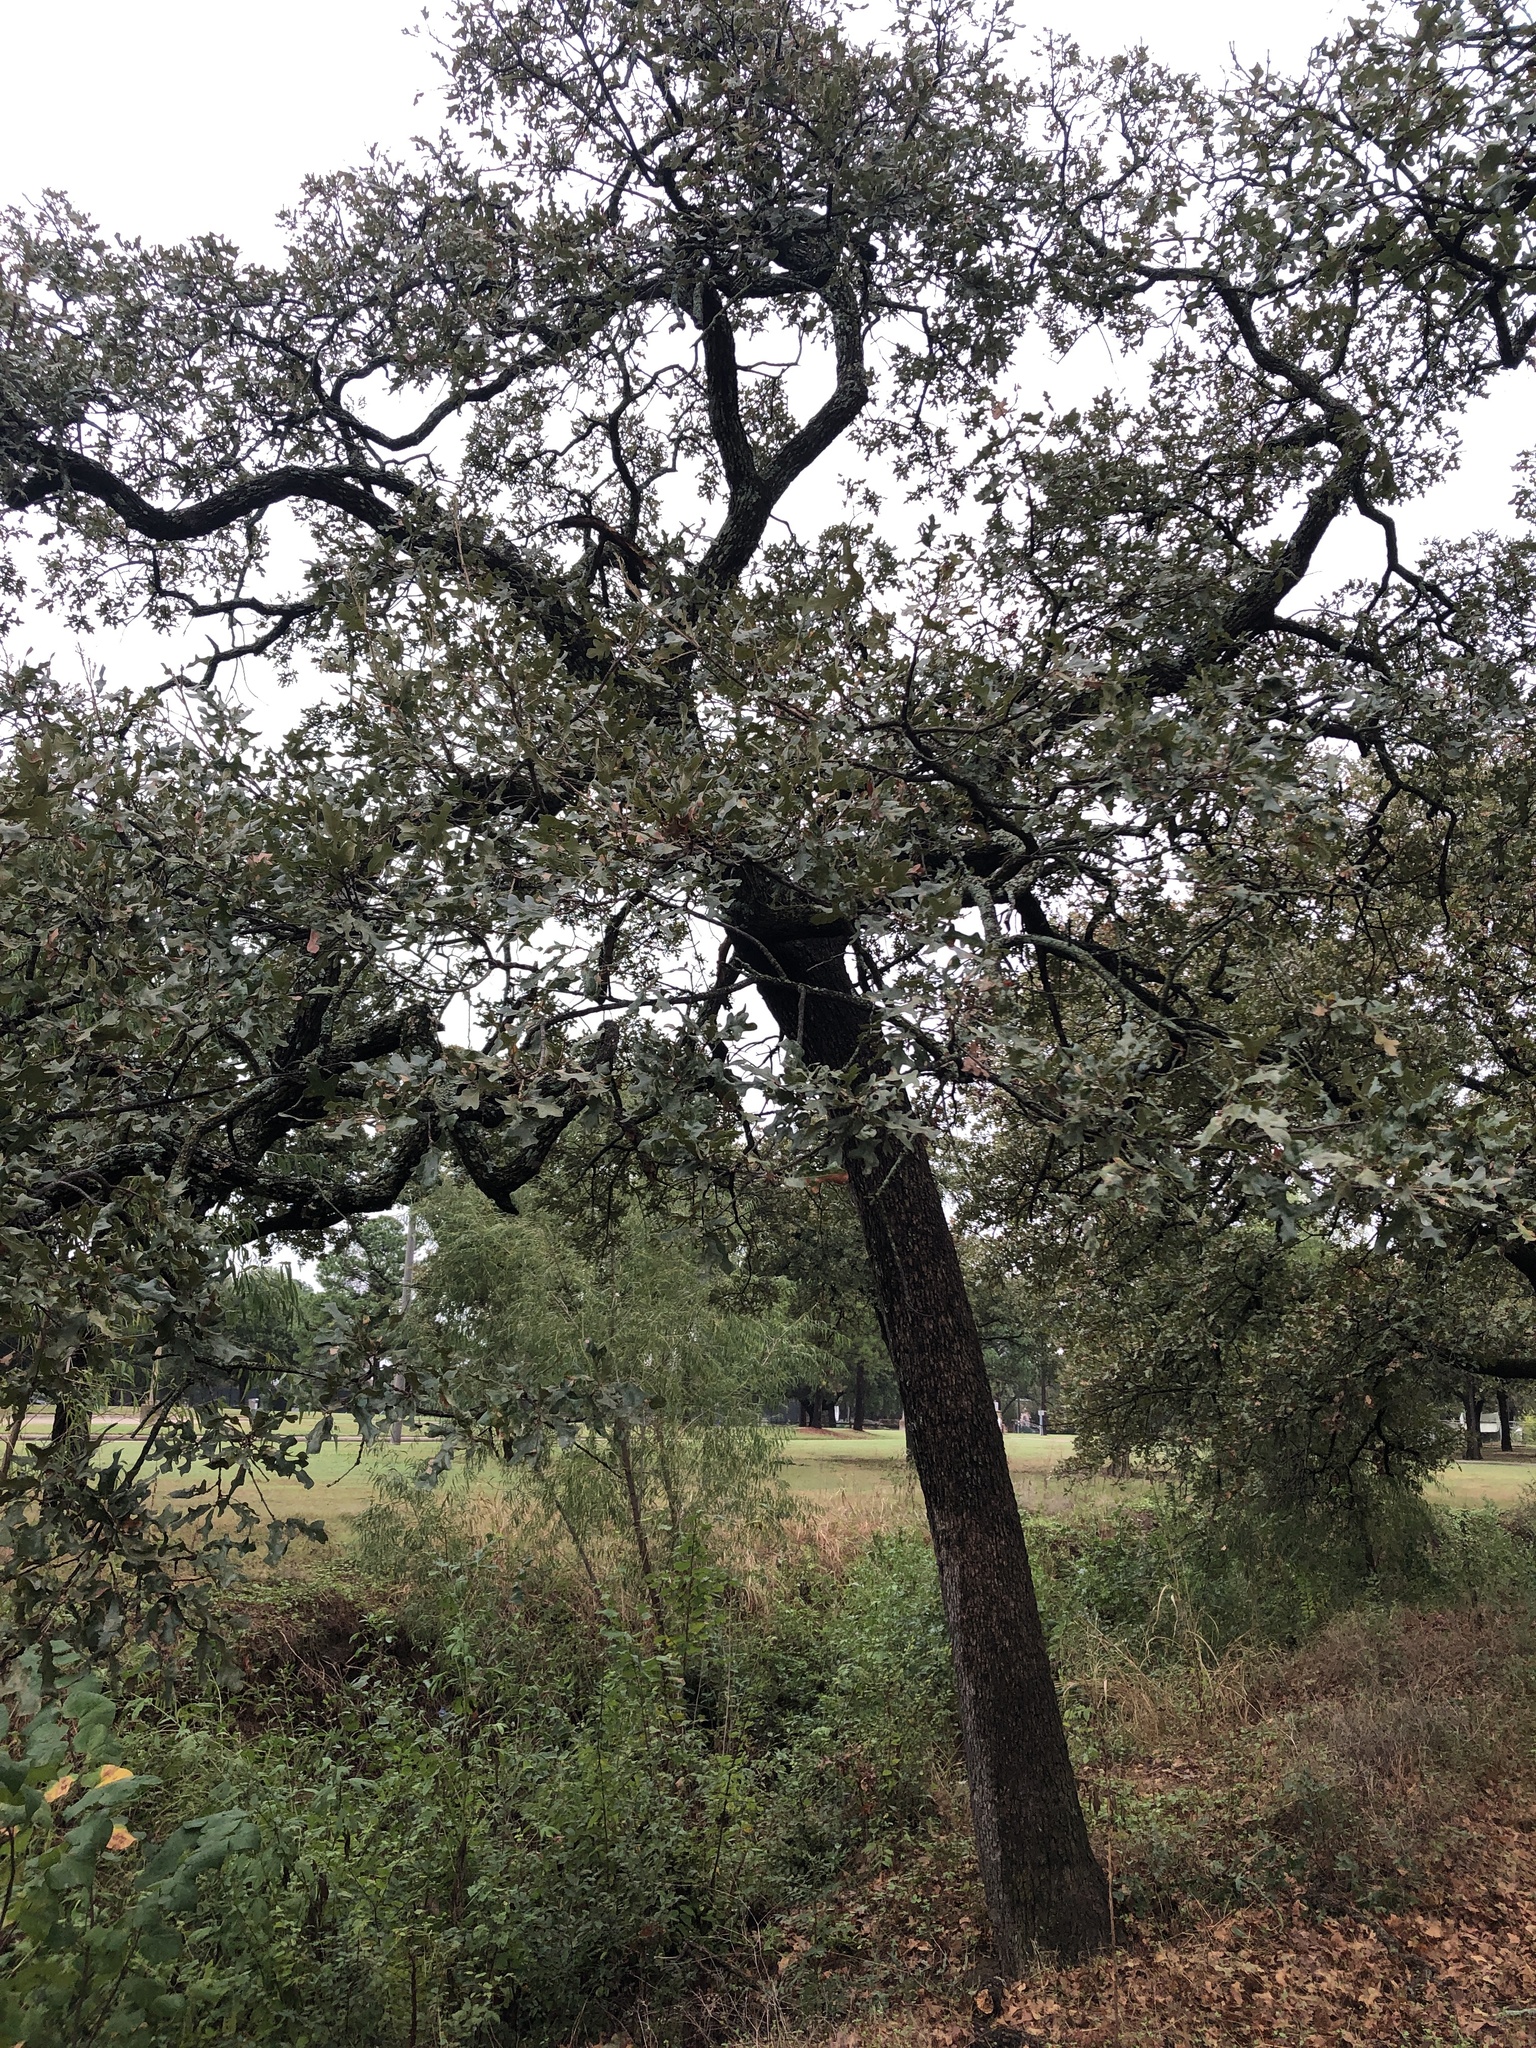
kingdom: Plantae
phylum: Tracheophyta
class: Magnoliopsida
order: Fagales
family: Fagaceae
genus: Quercus
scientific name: Quercus stellata
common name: Post oak
